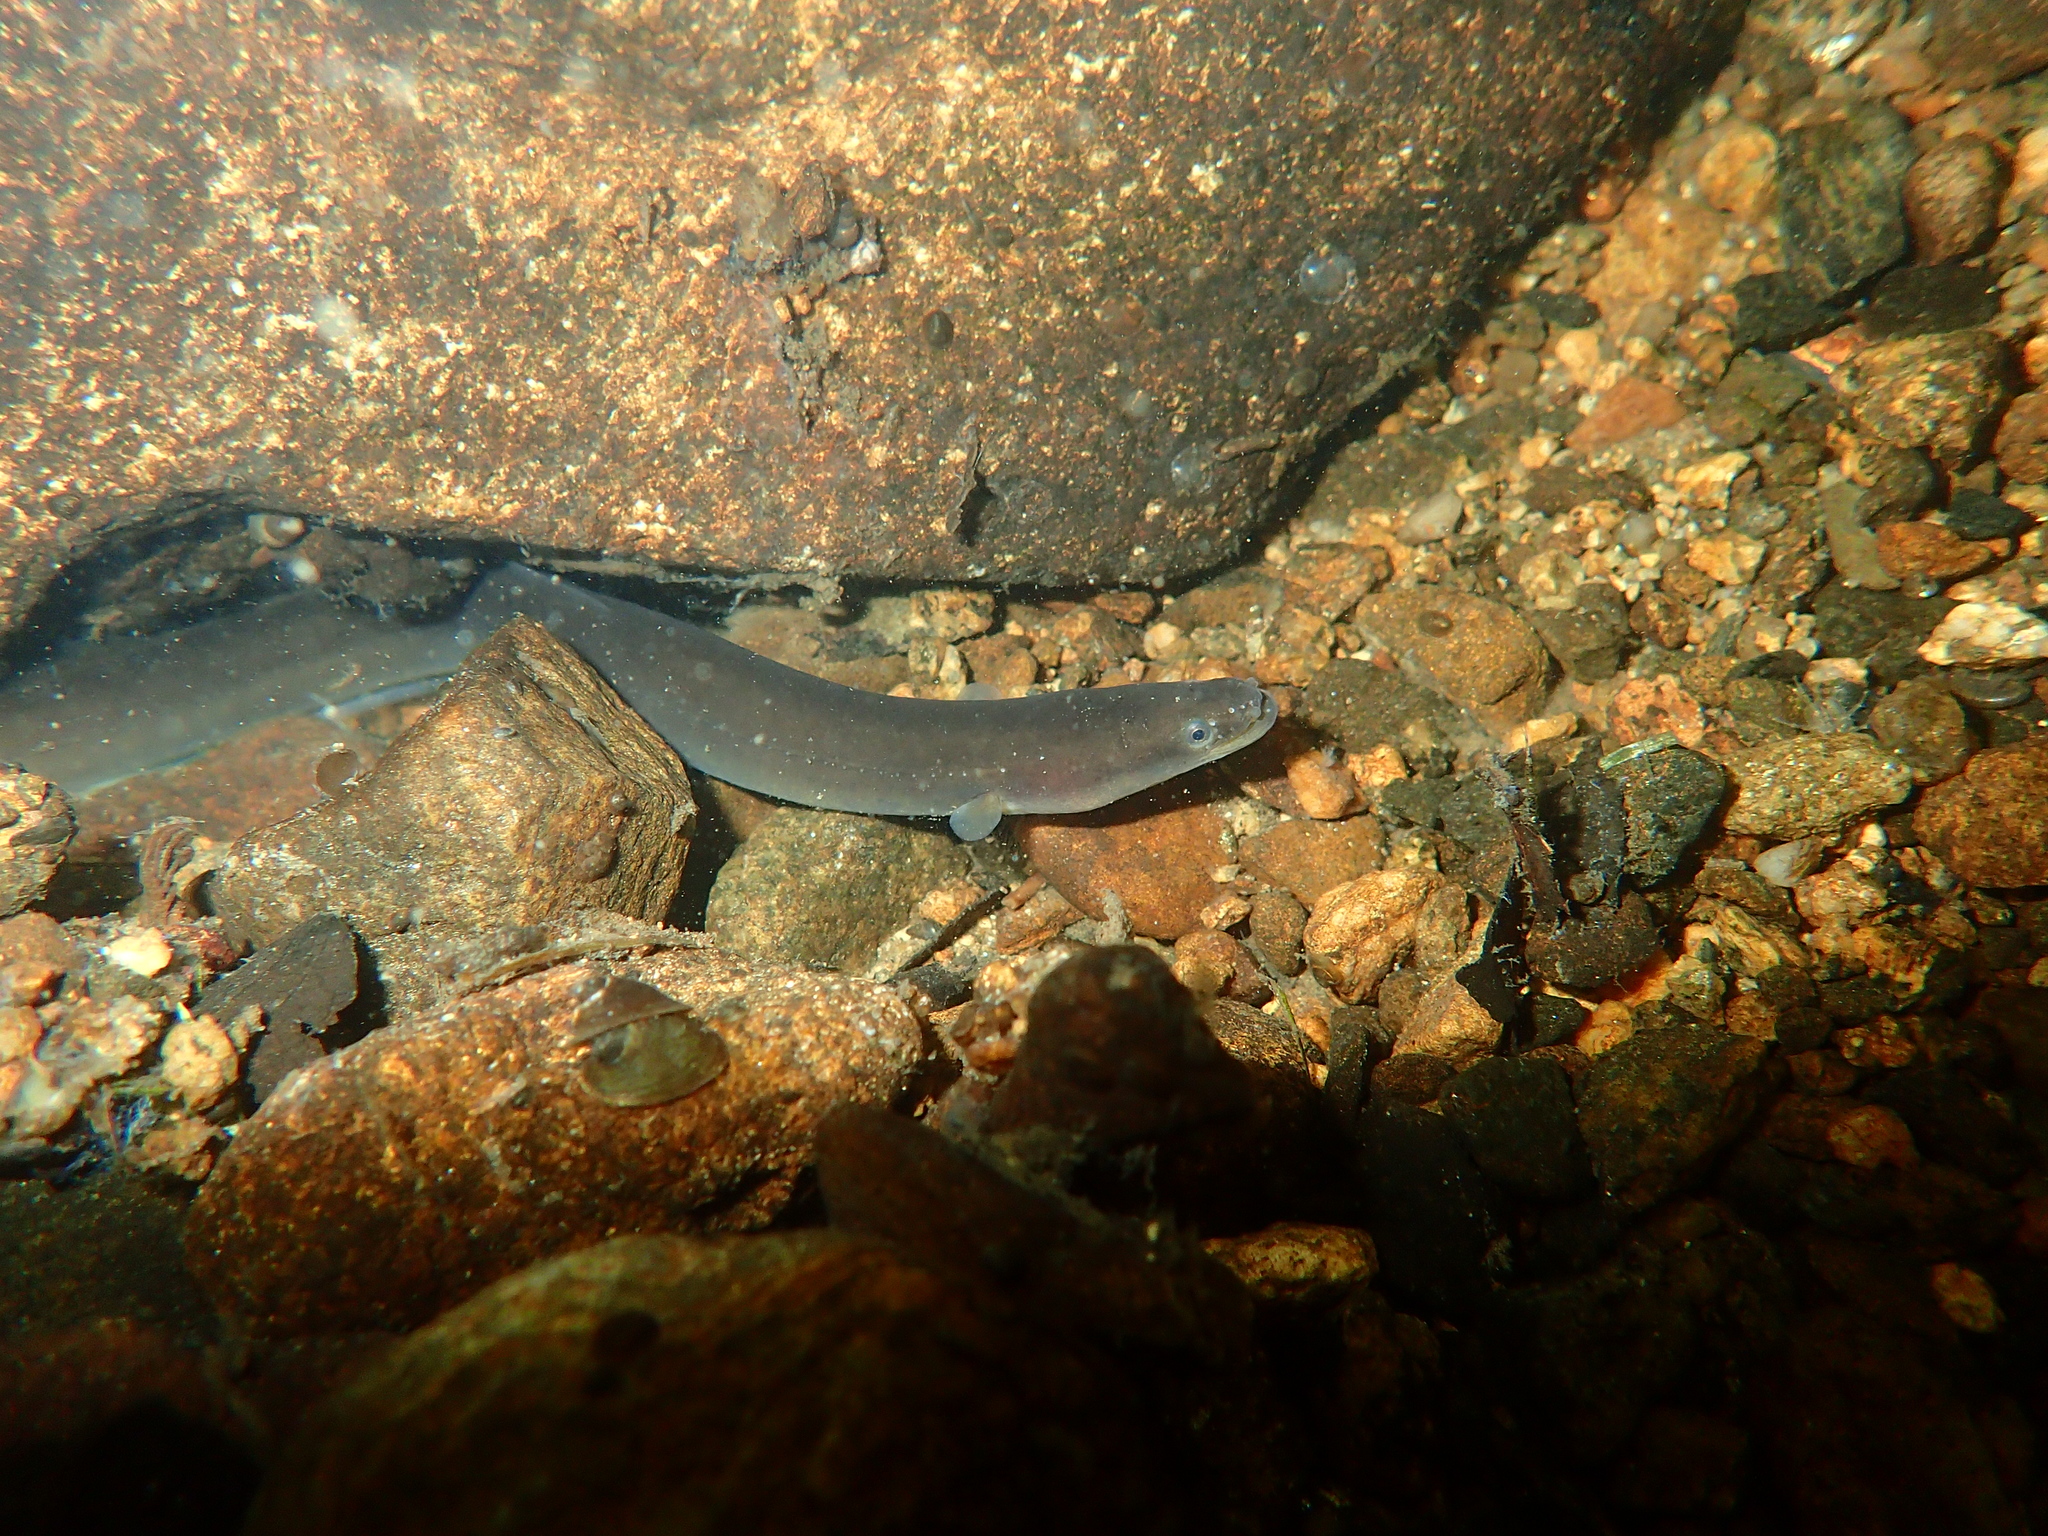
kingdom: Animalia
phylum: Chordata
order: Anguilliformes
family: Anguillidae
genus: Anguilla
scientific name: Anguilla anguilla
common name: European eel
